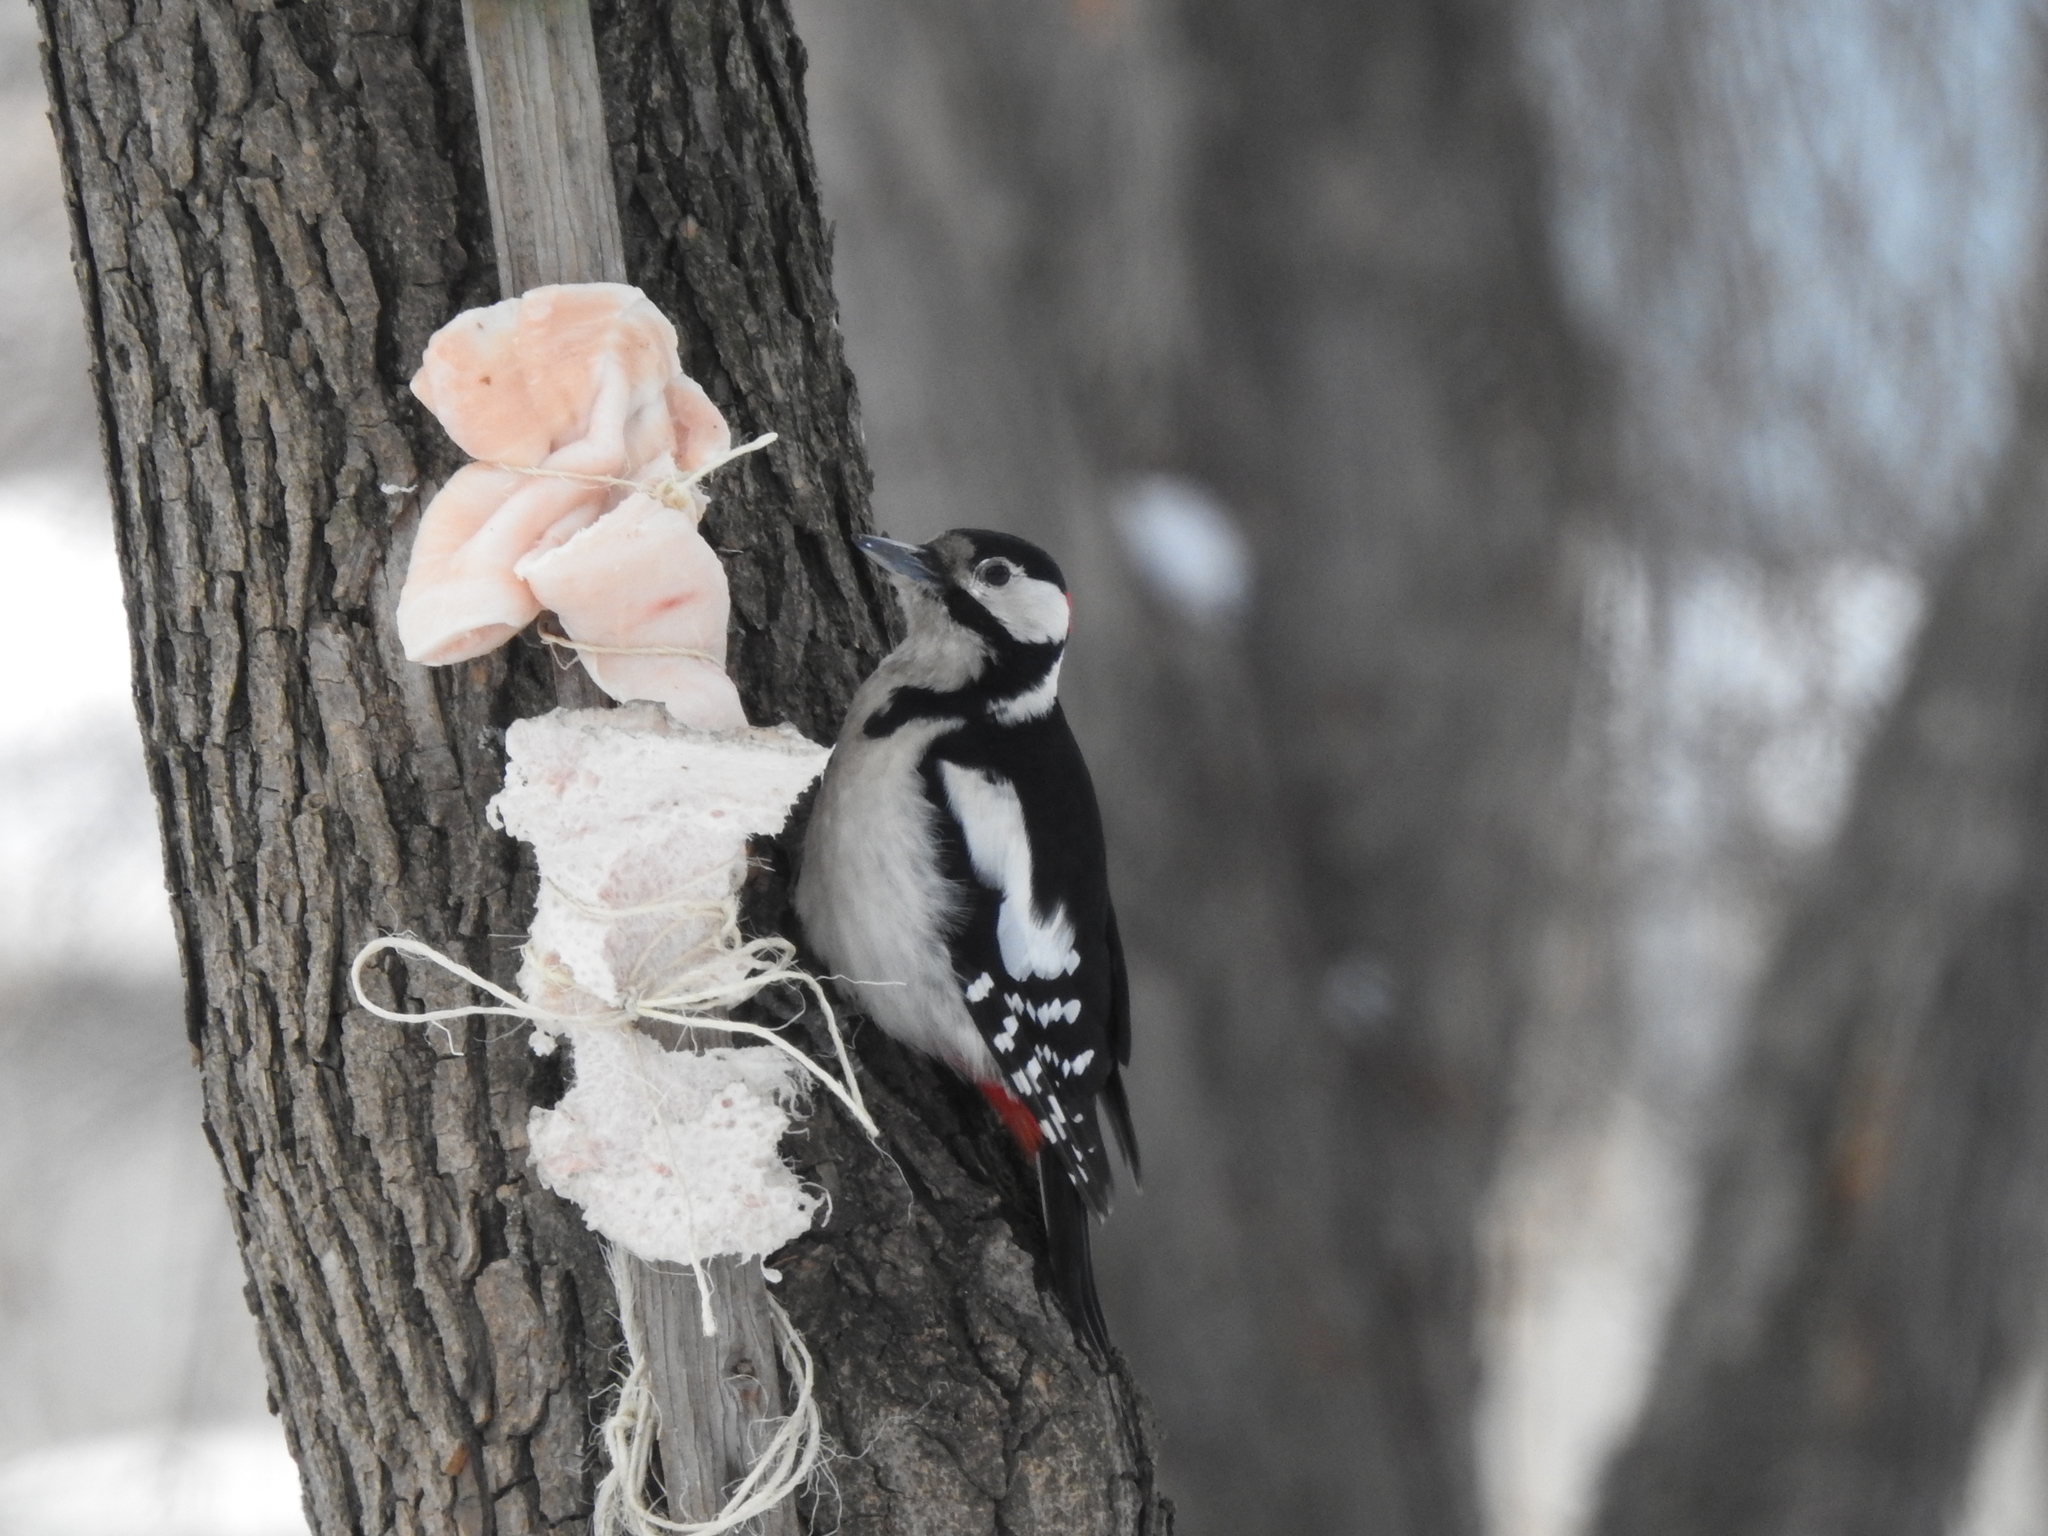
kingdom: Animalia
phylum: Chordata
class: Aves
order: Piciformes
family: Picidae
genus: Dendrocopos
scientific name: Dendrocopos major
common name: Great spotted woodpecker
